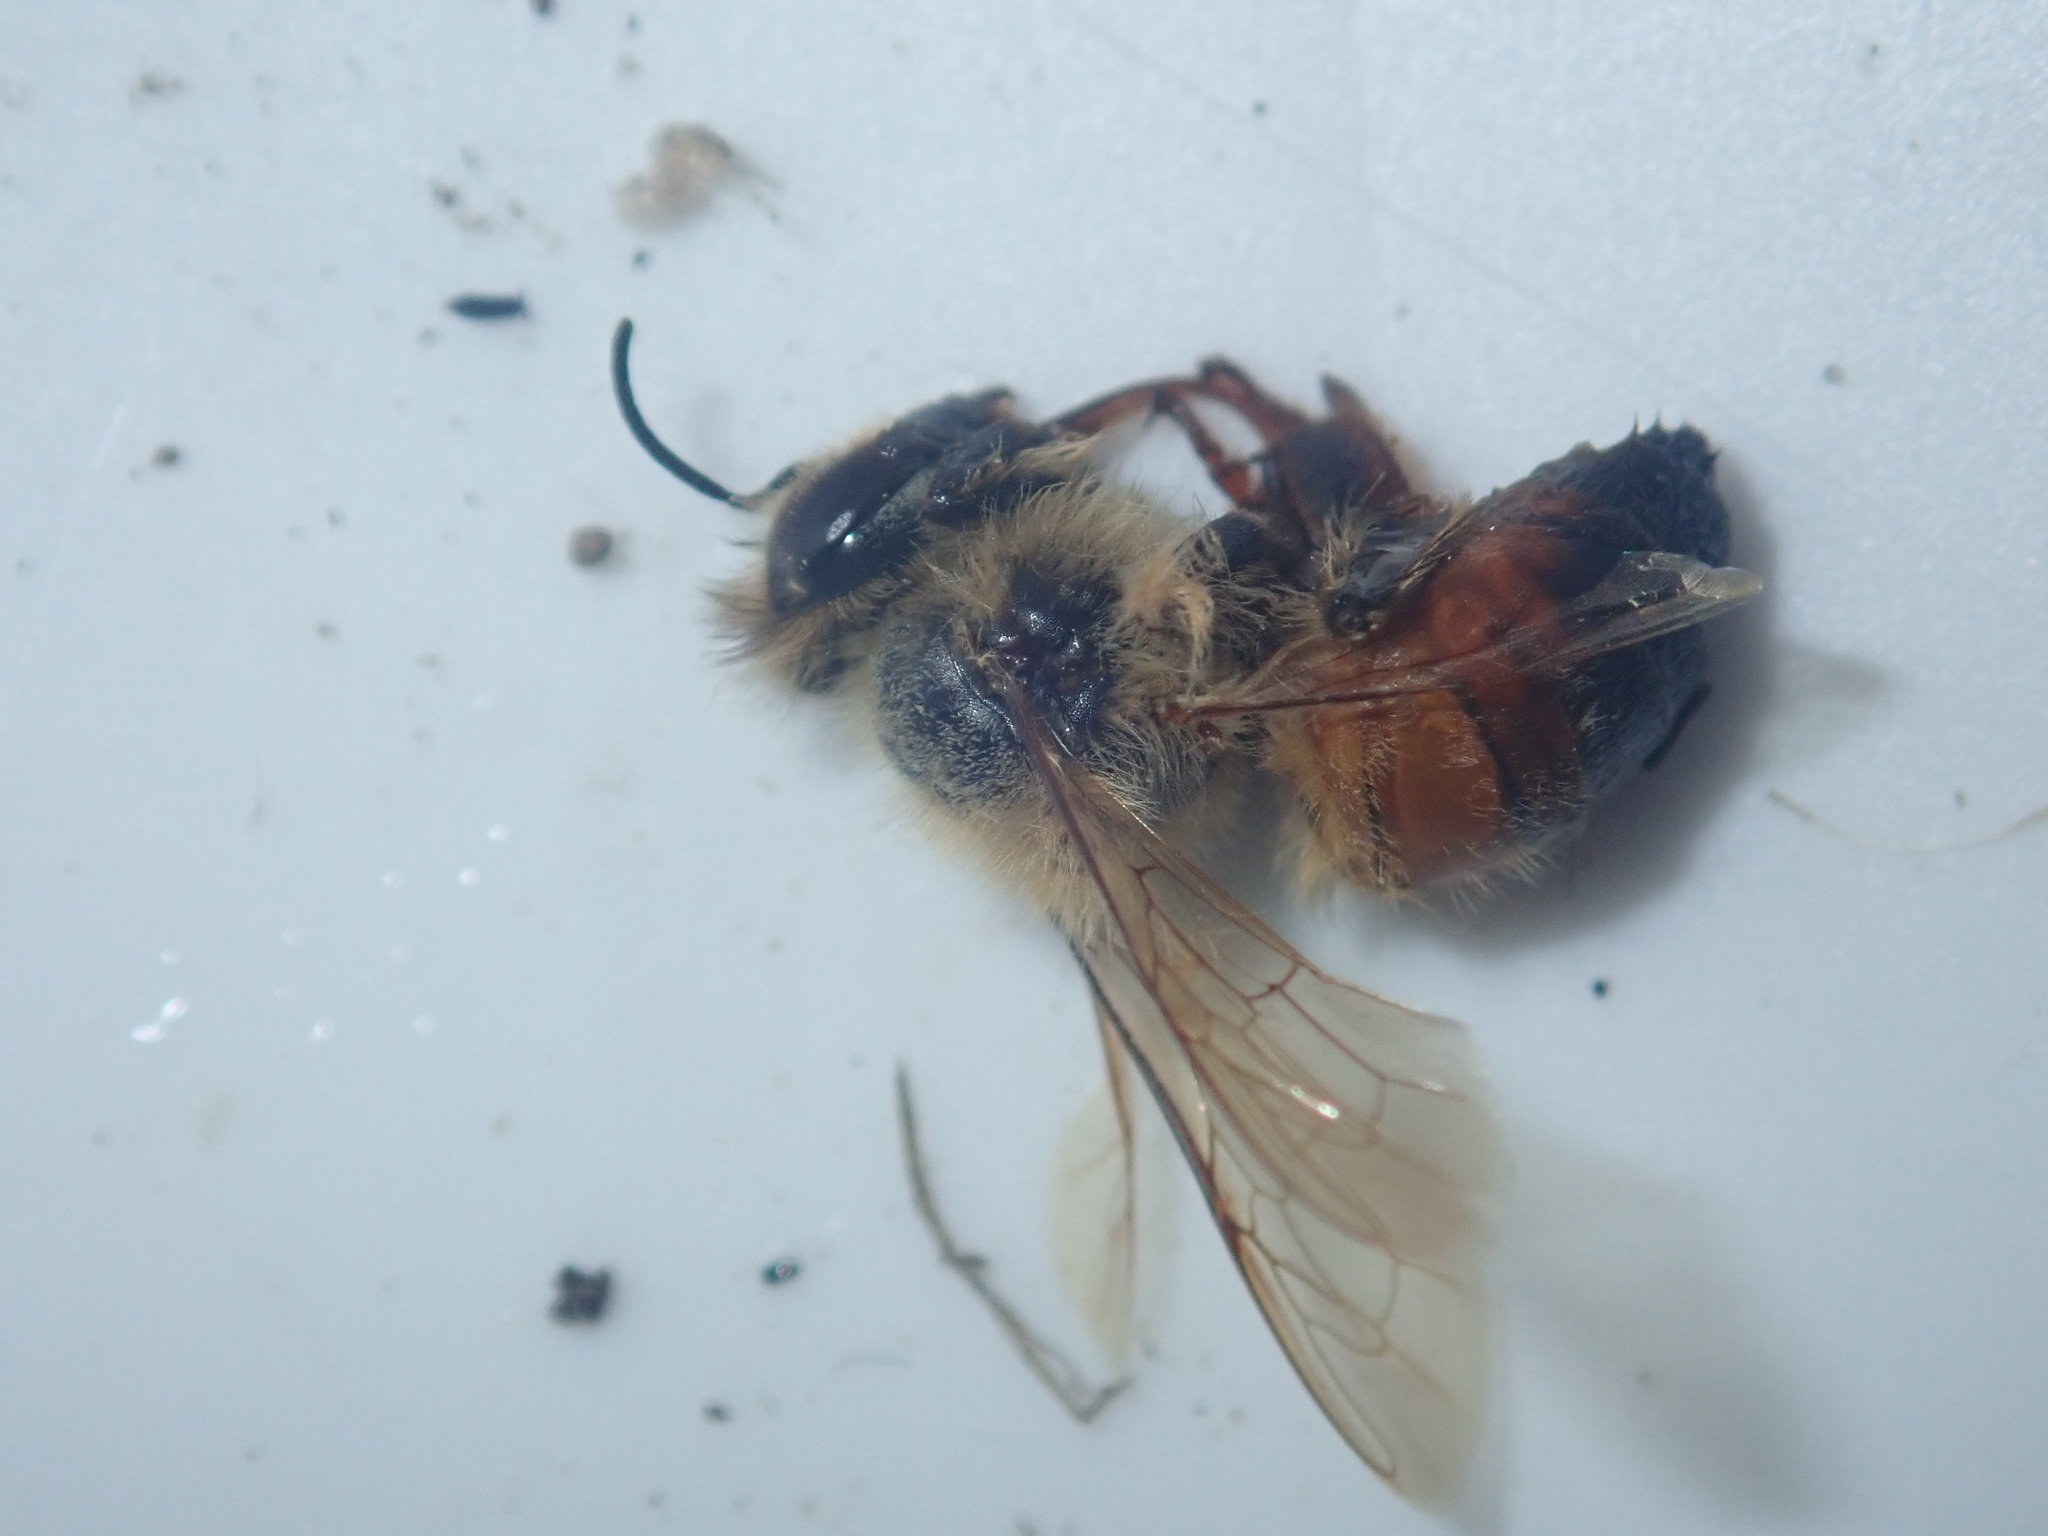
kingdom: Animalia
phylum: Arthropoda
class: Insecta
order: Hymenoptera
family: Apidae
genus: Apis
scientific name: Apis mellifera
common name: Honey bee
